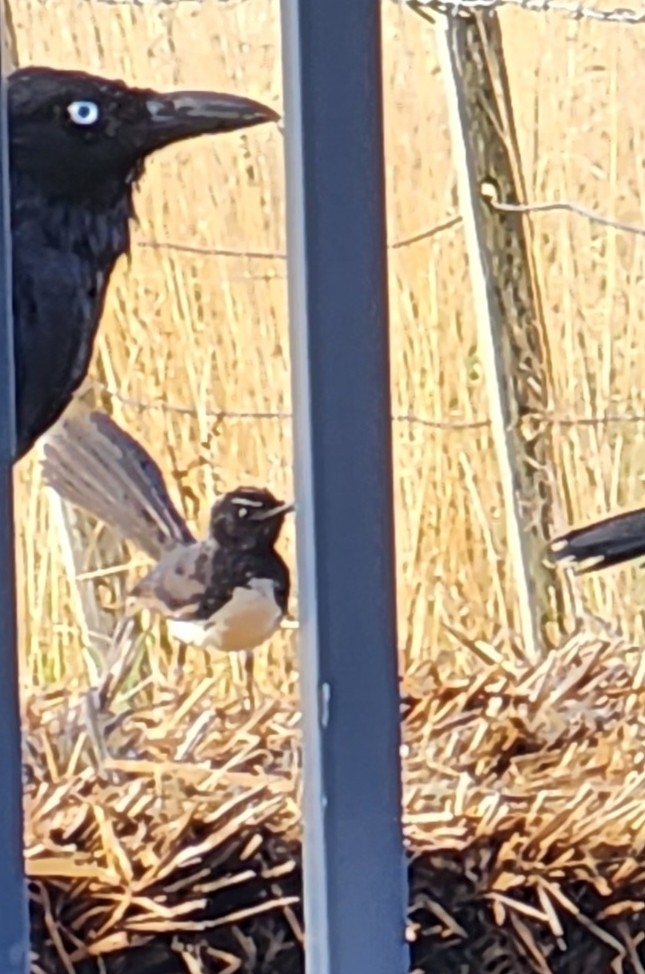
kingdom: Animalia
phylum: Chordata
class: Aves
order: Passeriformes
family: Rhipiduridae
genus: Rhipidura
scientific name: Rhipidura leucophrys
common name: Willie wagtail
